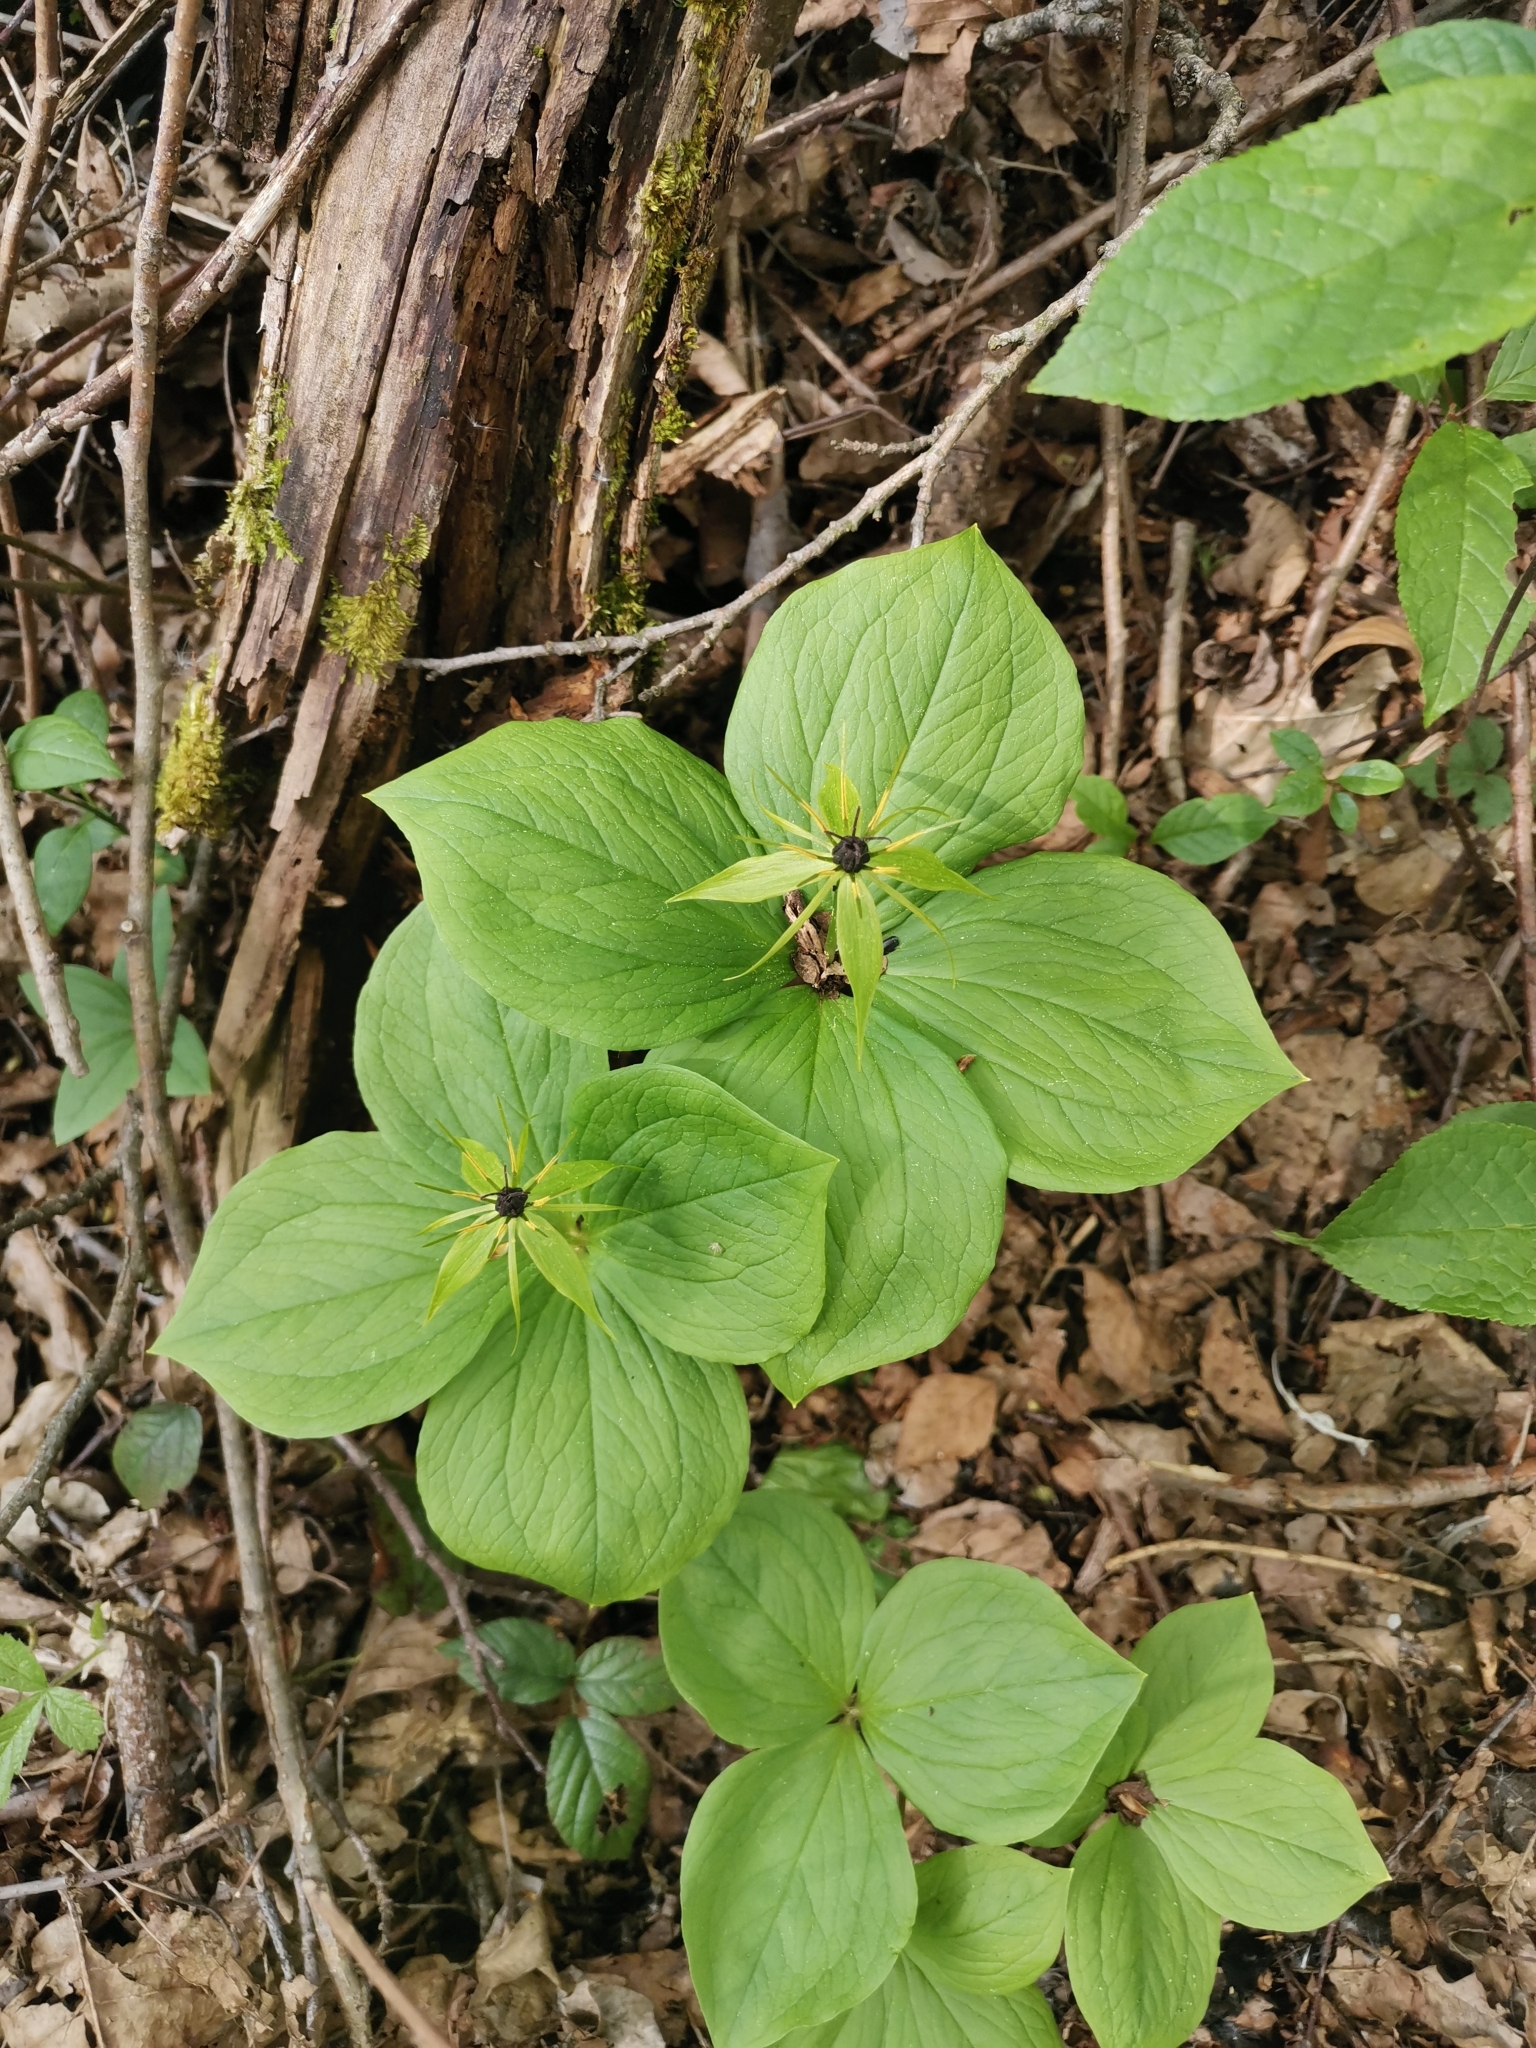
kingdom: Plantae
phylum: Tracheophyta
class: Liliopsida
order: Liliales
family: Melanthiaceae
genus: Paris
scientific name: Paris quadrifolia
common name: Herb-paris
